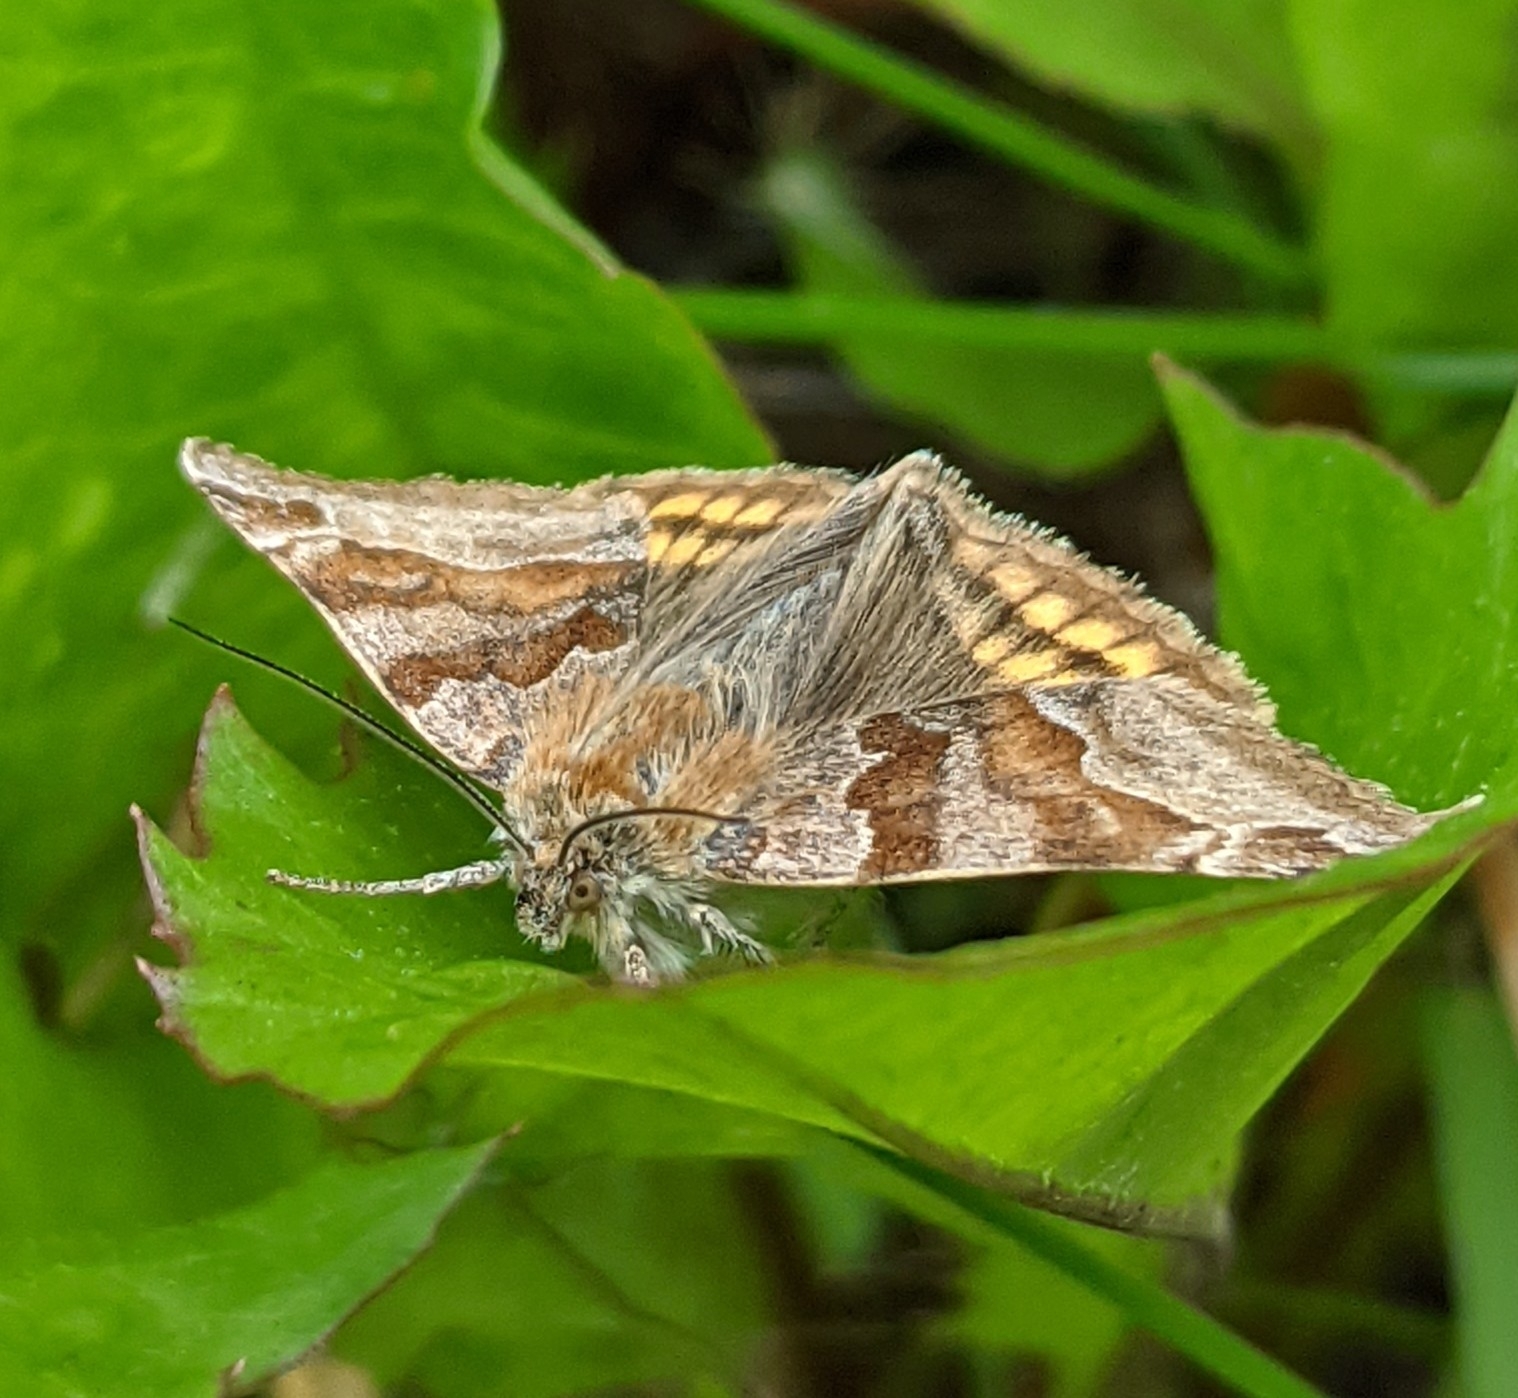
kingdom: Animalia
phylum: Arthropoda
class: Insecta
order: Lepidoptera
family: Erebidae
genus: Euclidia
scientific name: Euclidia glyphica
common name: Burnet companion
